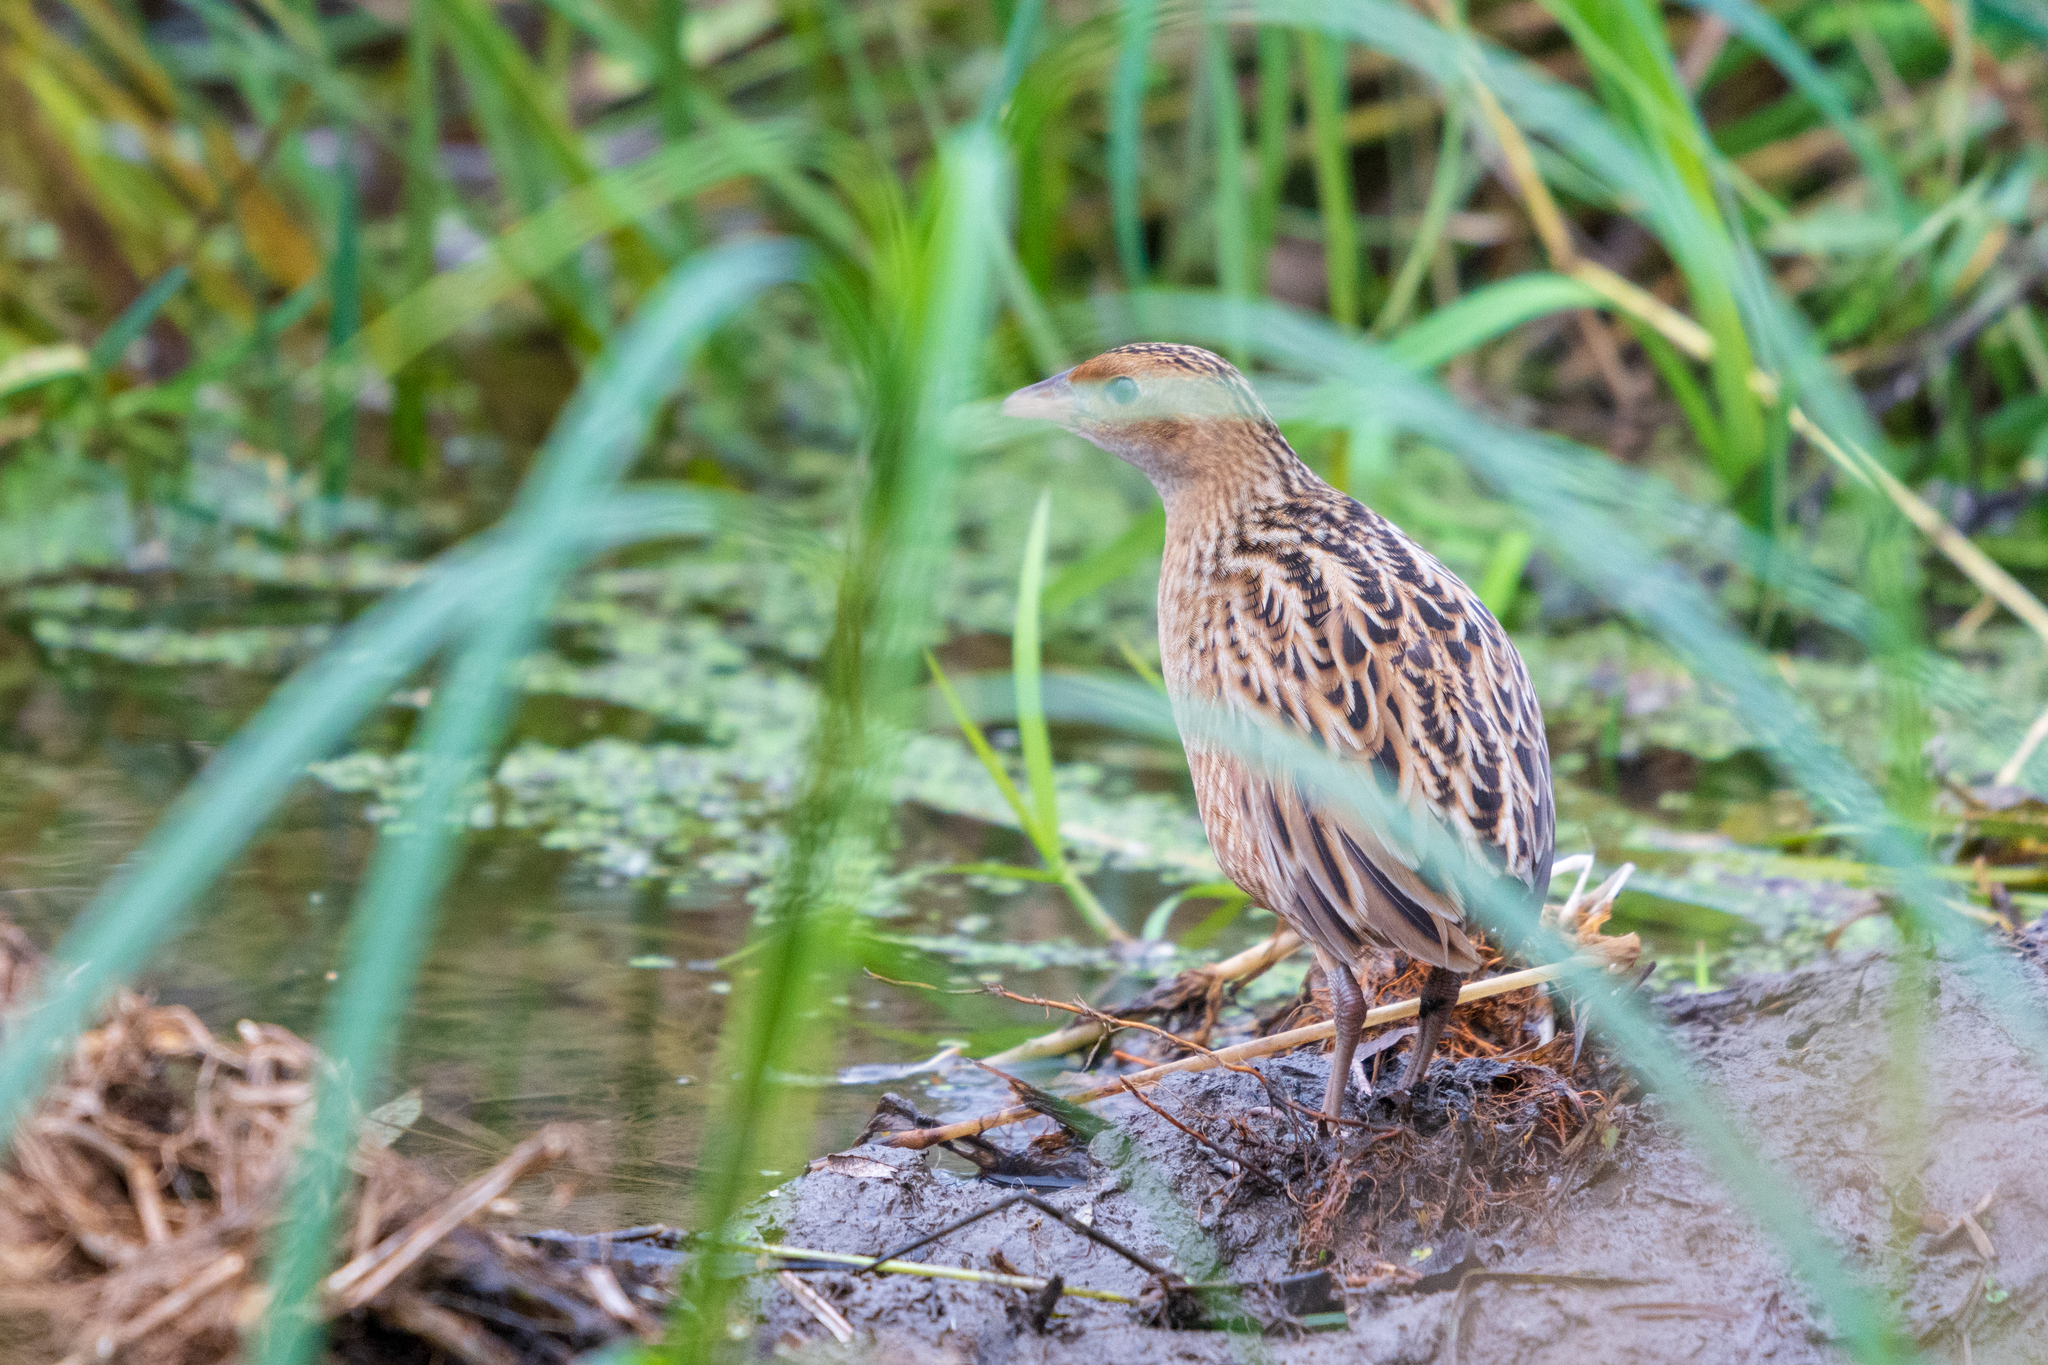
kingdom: Animalia
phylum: Chordata
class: Aves
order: Gruiformes
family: Rallidae
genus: Crex
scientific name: Crex crex
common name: Corn crake
